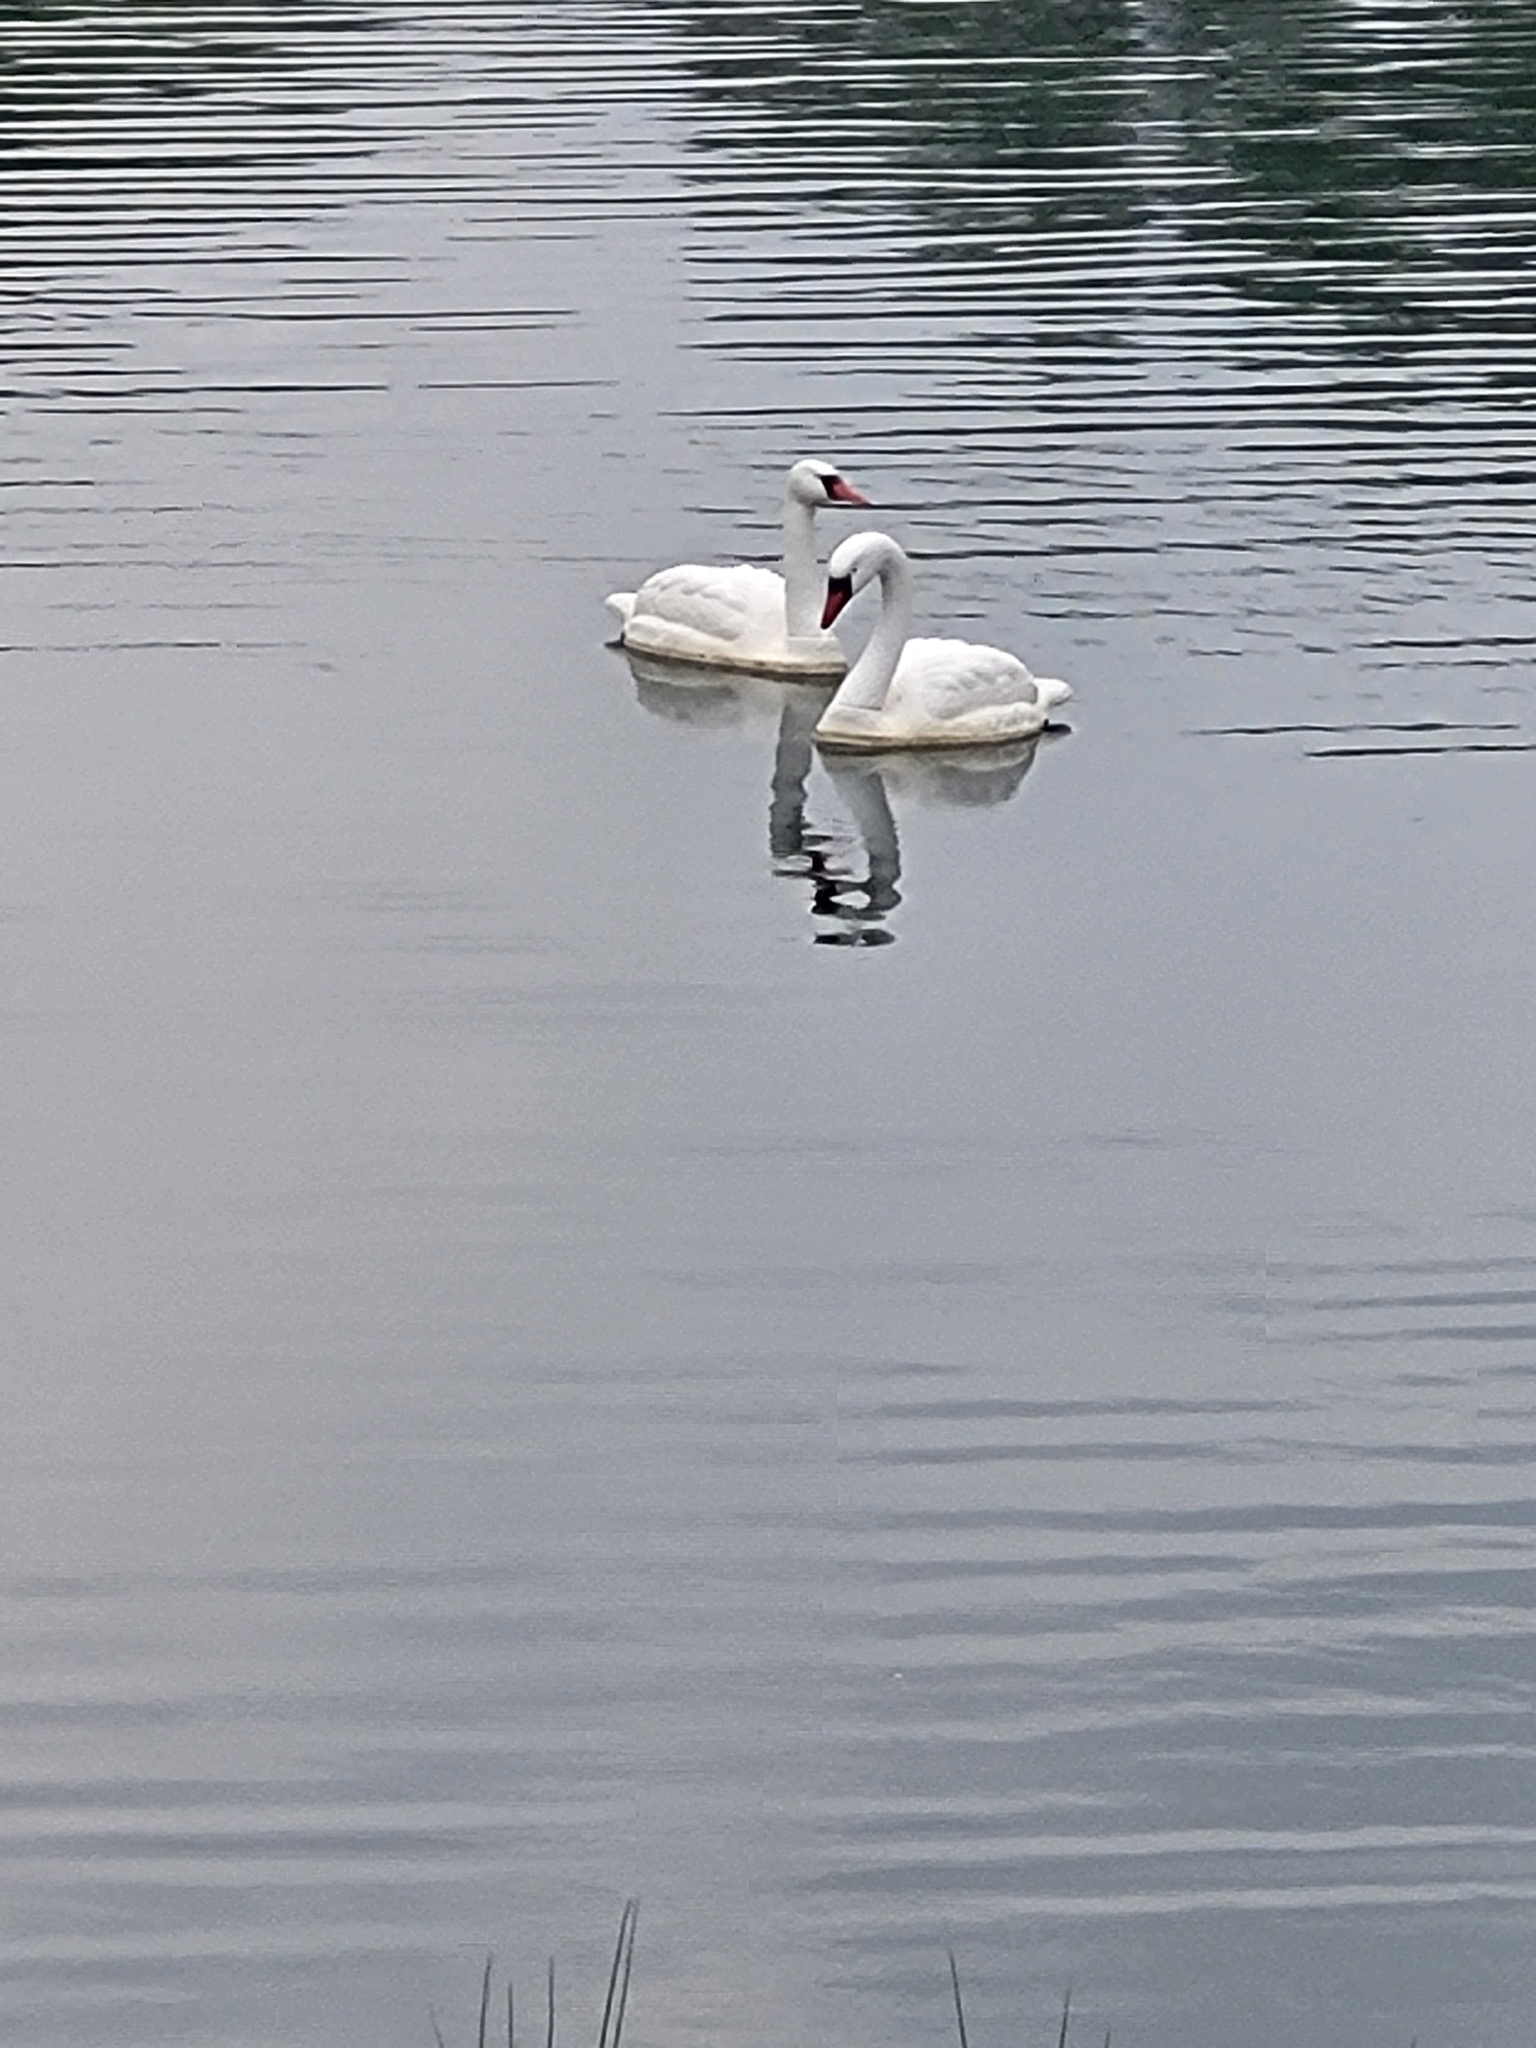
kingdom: Animalia
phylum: Chordata
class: Aves
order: Anseriformes
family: Anatidae
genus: Cygnus
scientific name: Cygnus olor
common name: Mute swan
